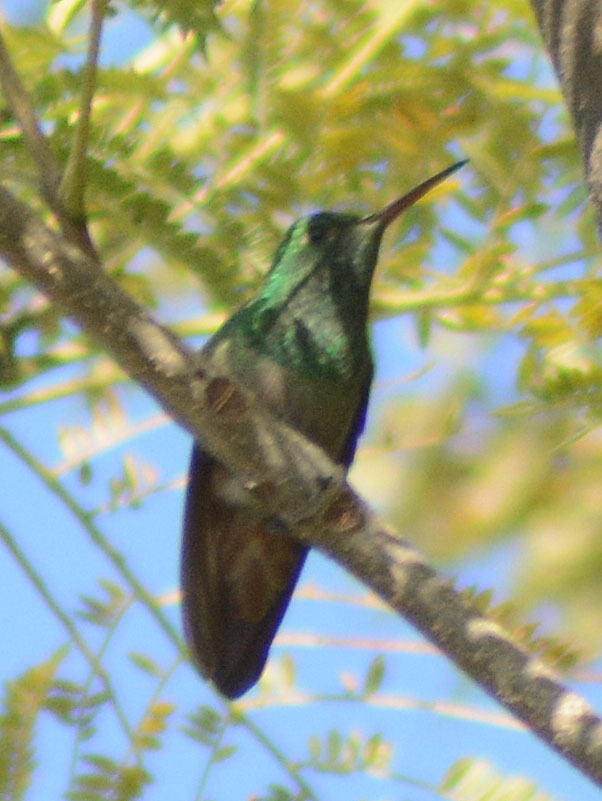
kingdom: Animalia
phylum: Chordata
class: Aves
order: Apodiformes
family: Trochilidae
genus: Saucerottia
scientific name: Saucerottia beryllina
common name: Berylline hummingbird
